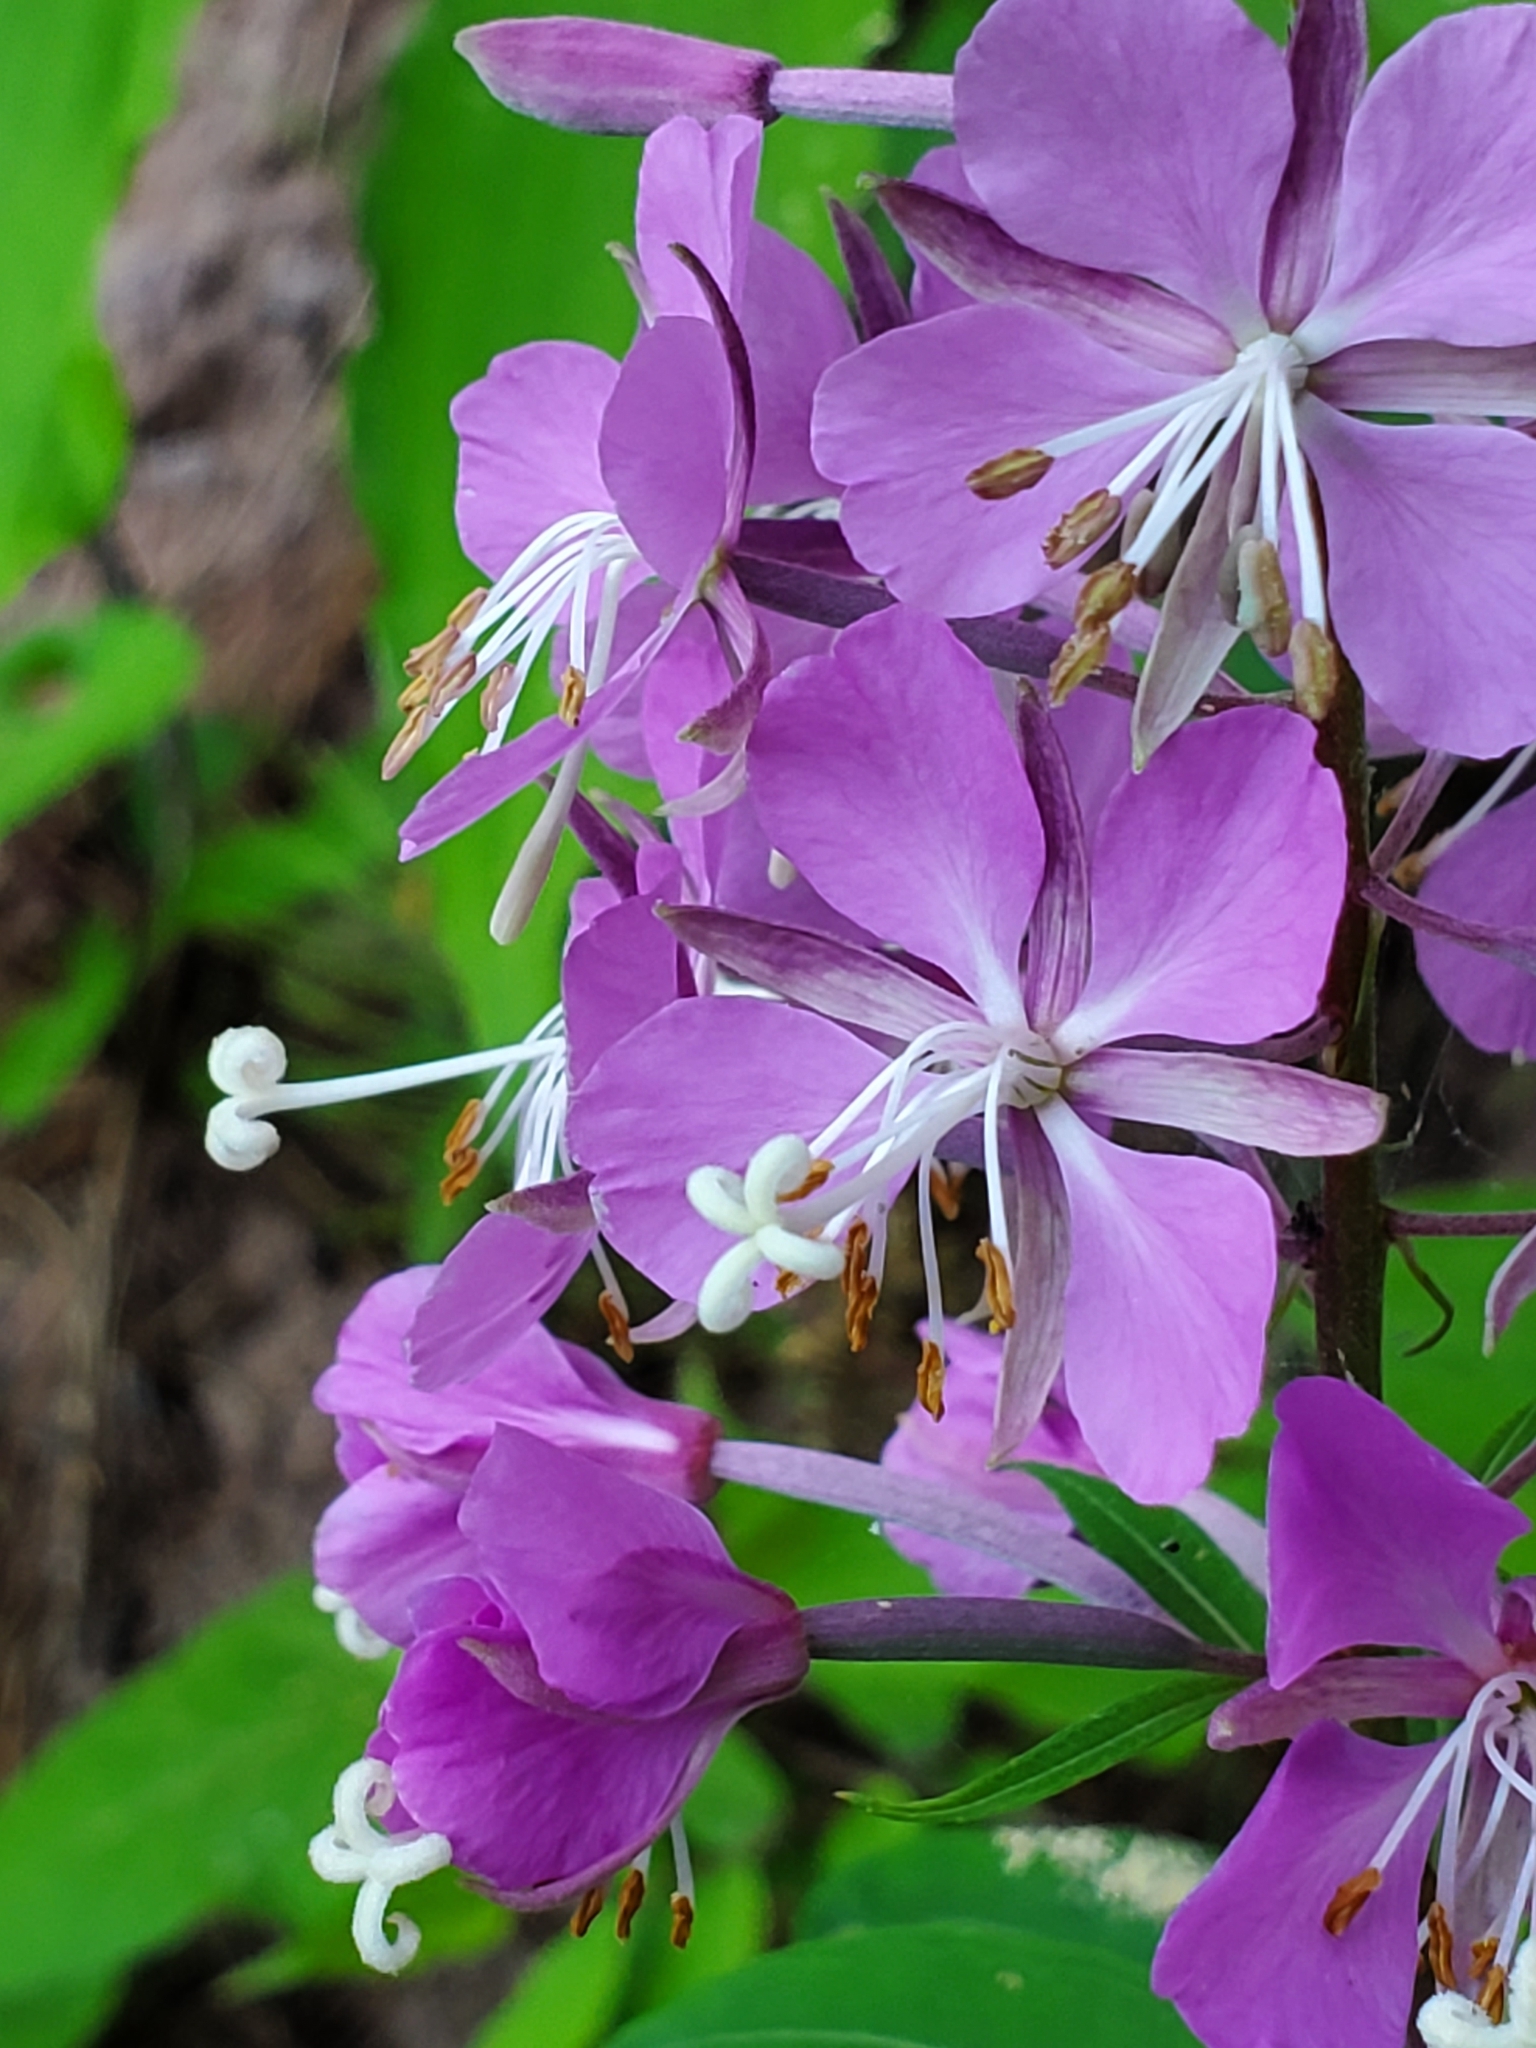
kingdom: Plantae
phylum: Tracheophyta
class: Magnoliopsida
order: Myrtales
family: Onagraceae
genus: Chamaenerion
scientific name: Chamaenerion angustifolium
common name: Fireweed
